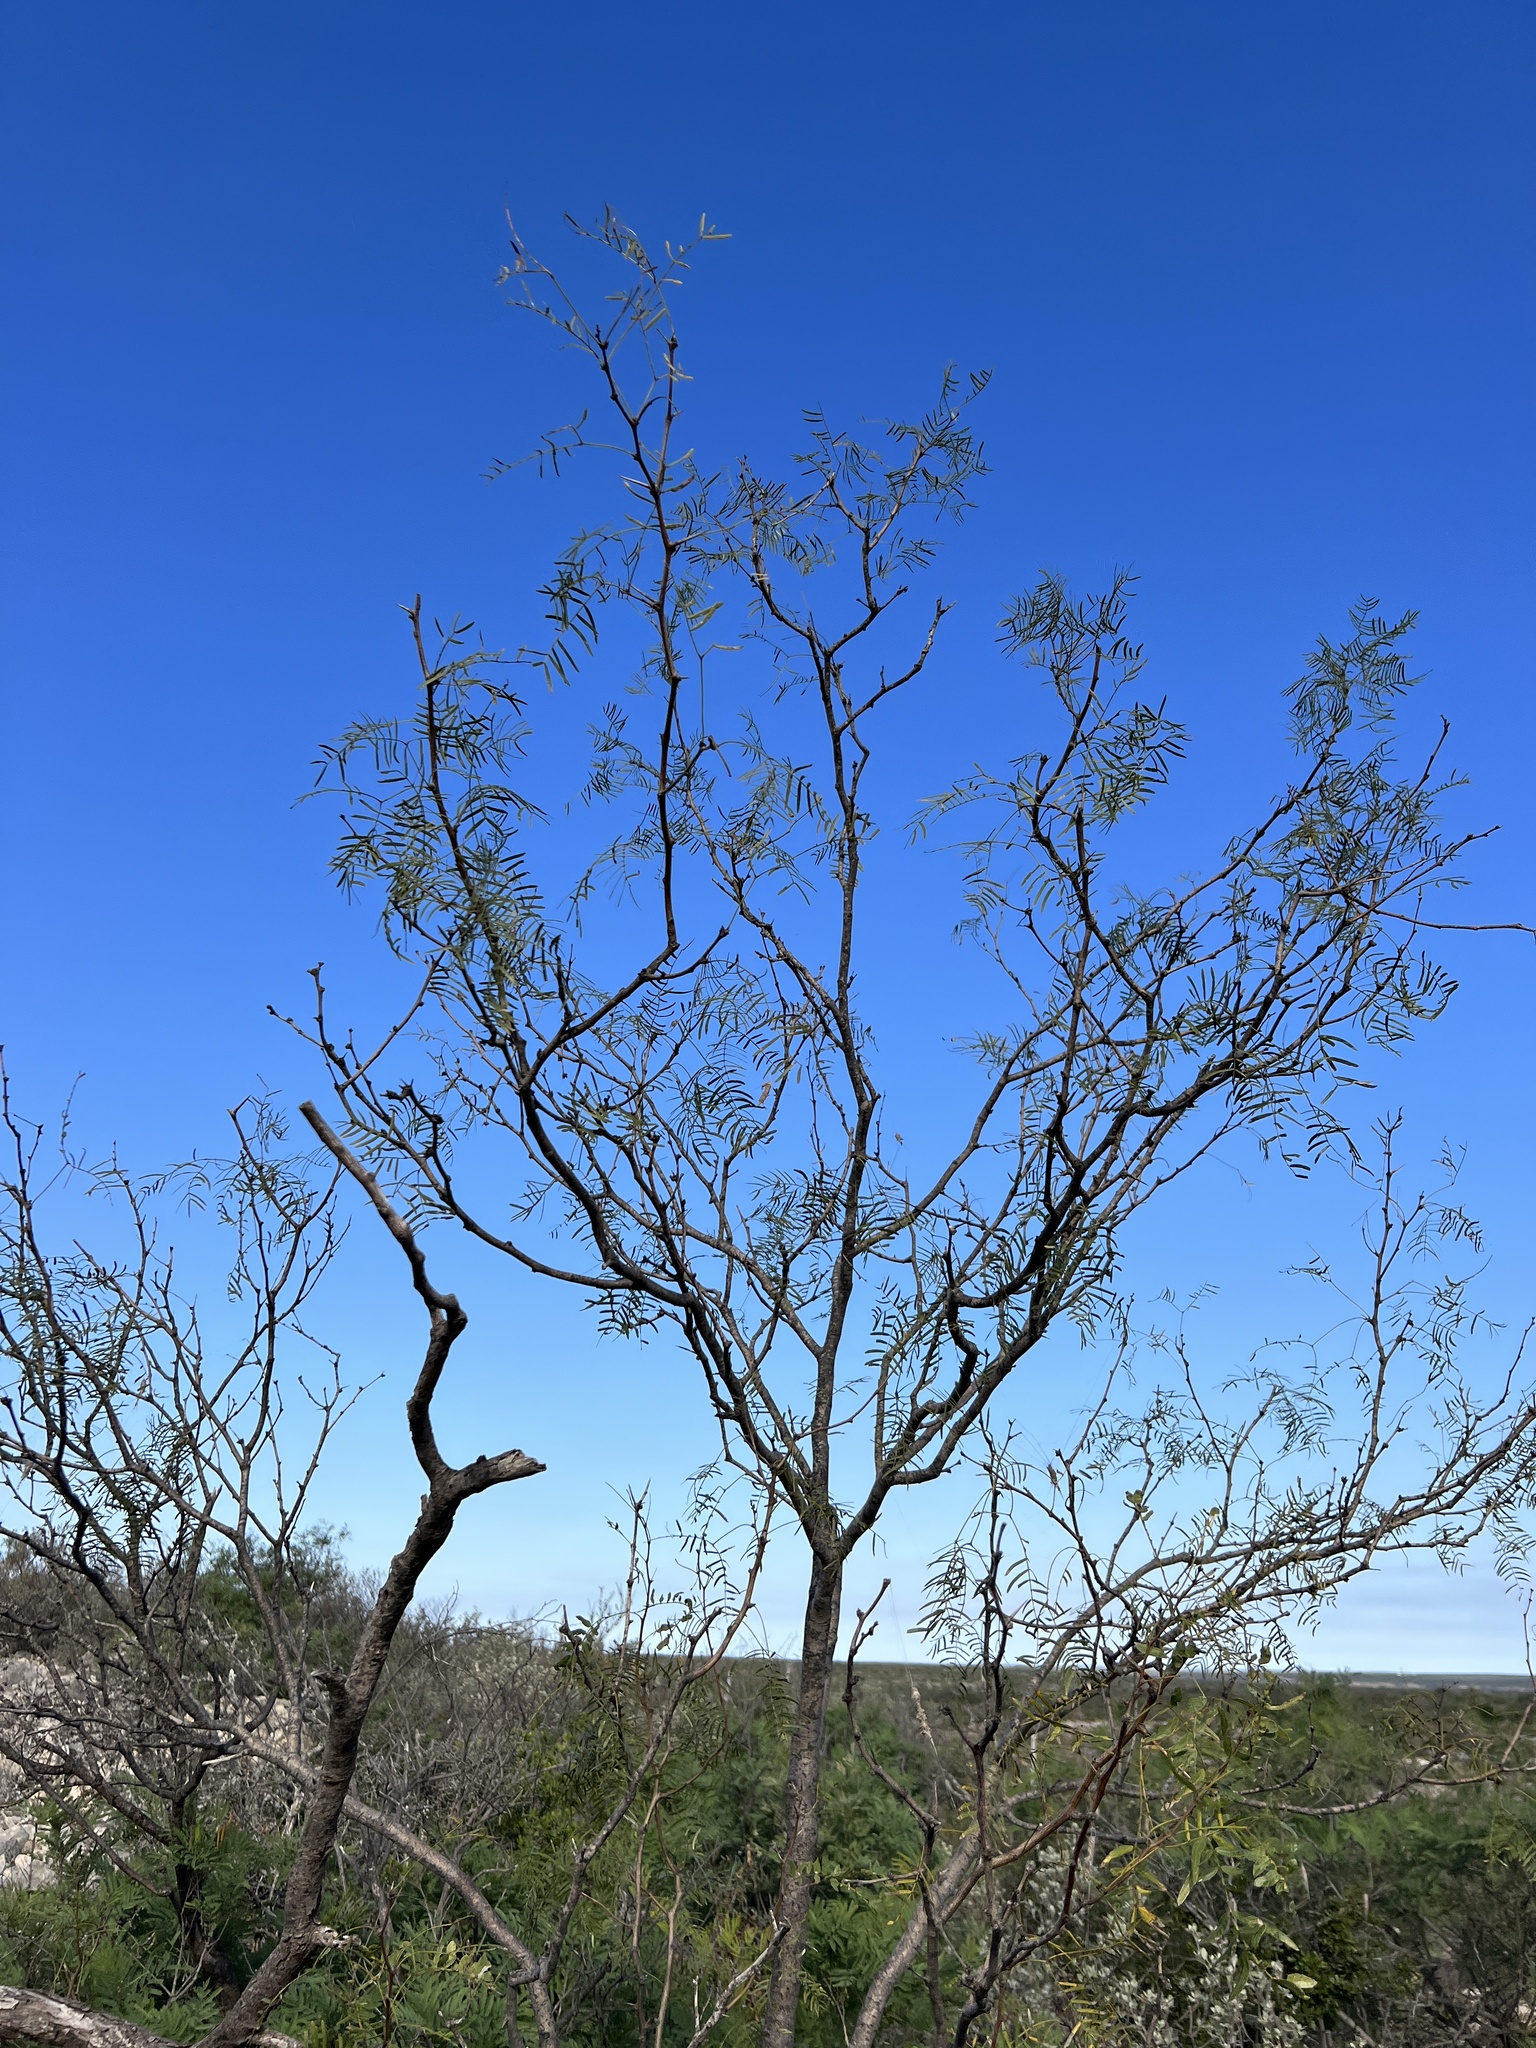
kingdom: Plantae
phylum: Tracheophyta
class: Magnoliopsida
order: Fabales
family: Fabaceae
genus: Prosopis
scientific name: Prosopis glandulosa
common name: Honey mesquite
